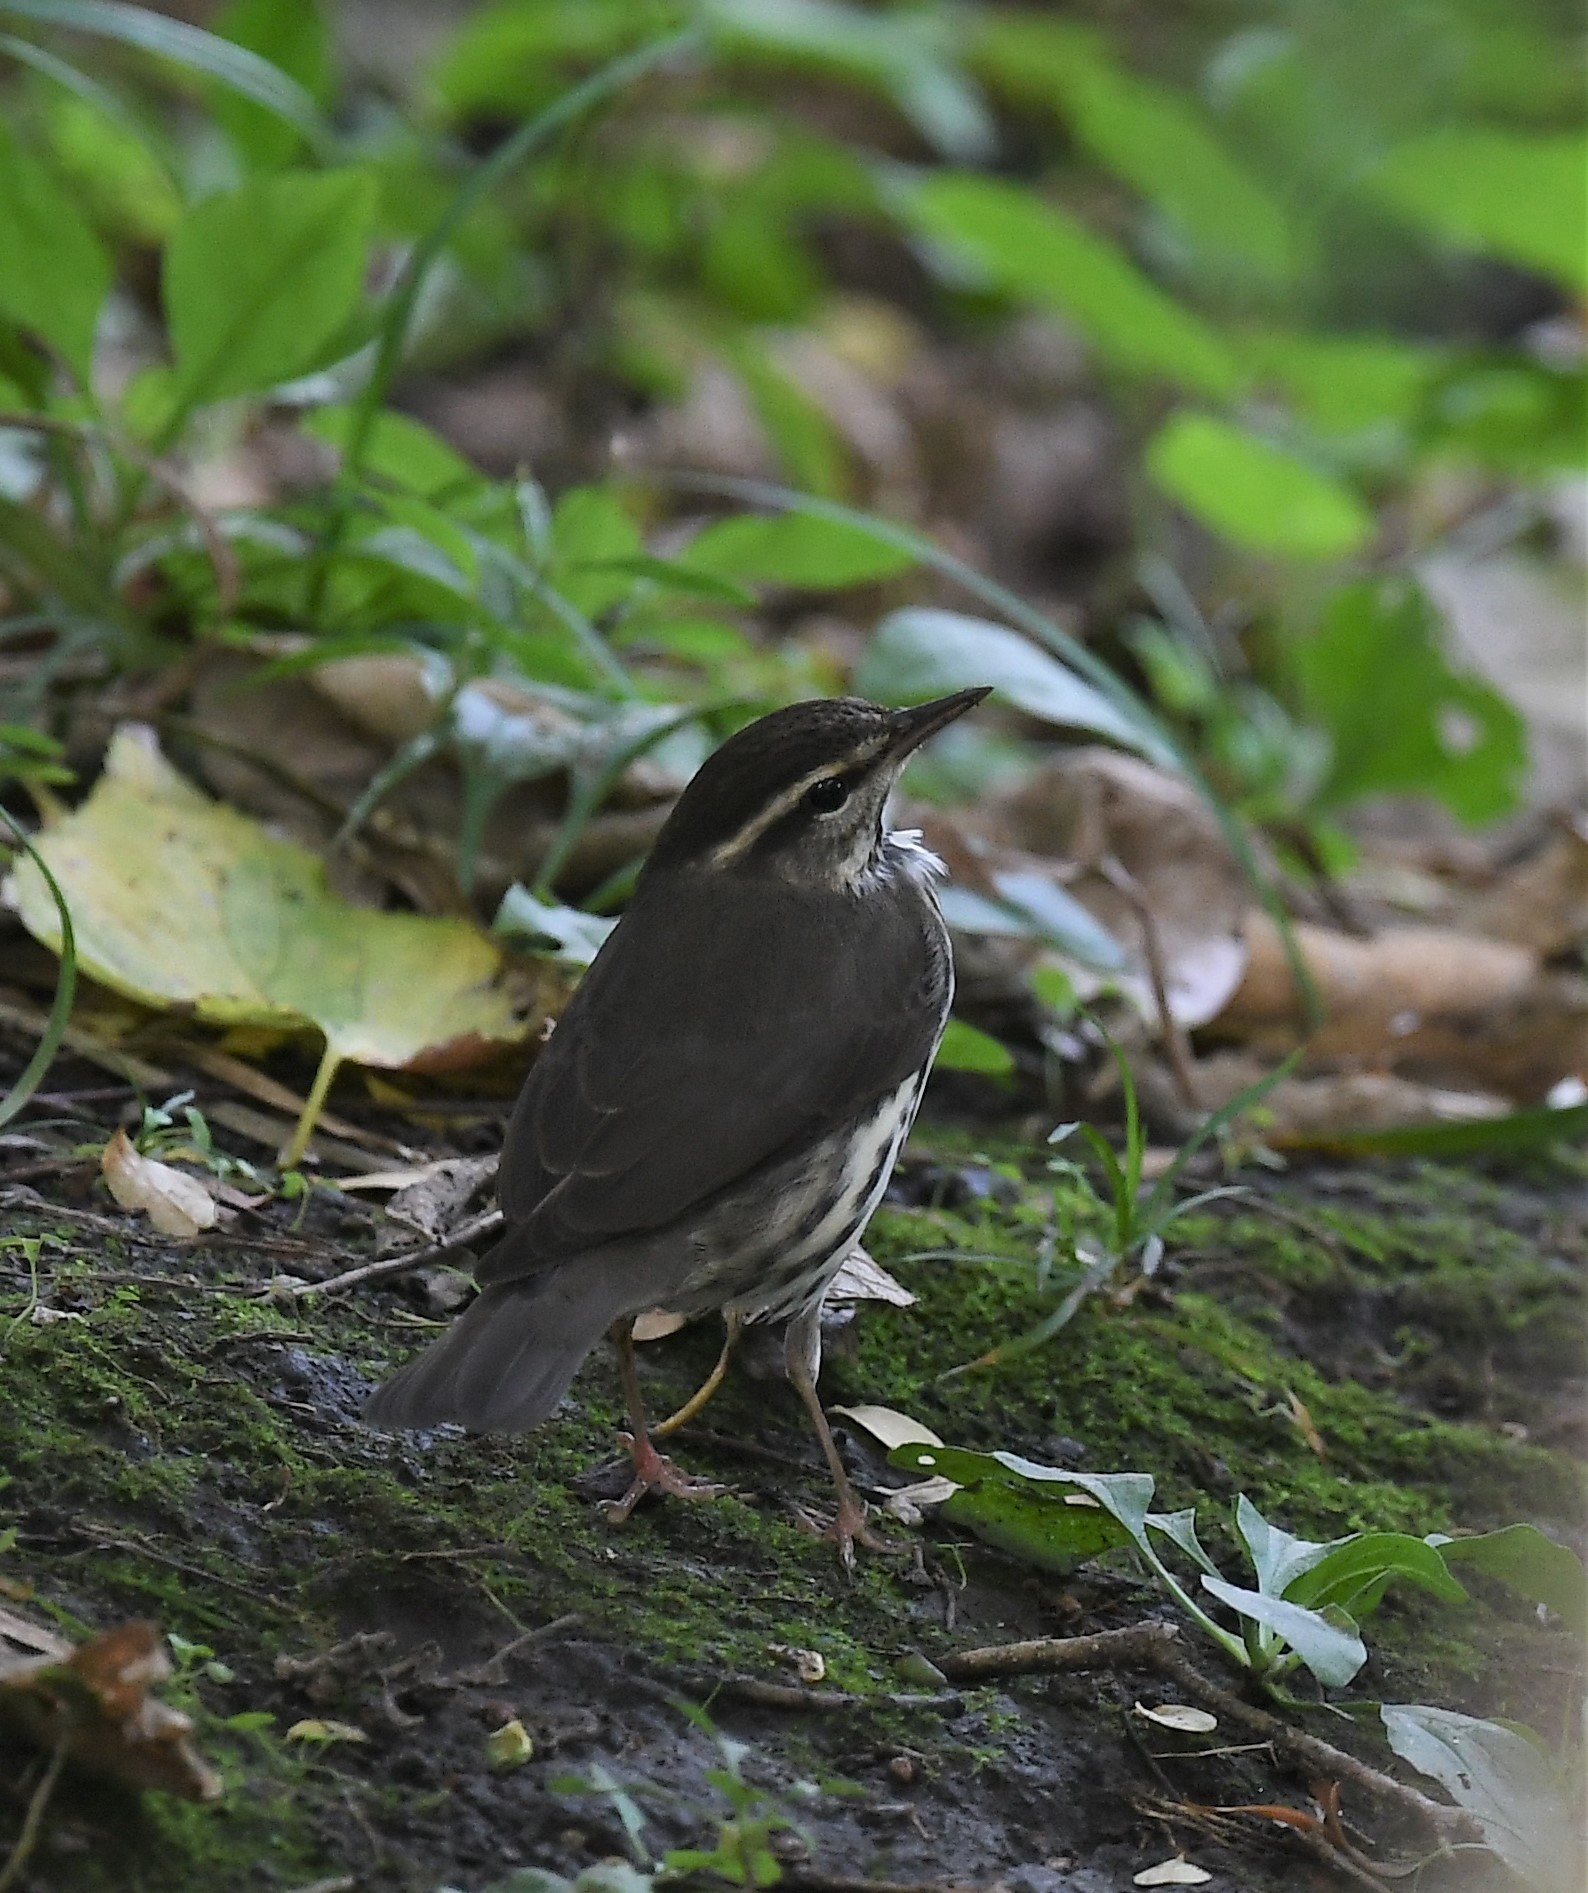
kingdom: Animalia
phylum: Chordata
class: Aves
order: Passeriformes
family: Parulidae
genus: Parkesia
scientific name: Parkesia noveboracensis
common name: Northern waterthrush
